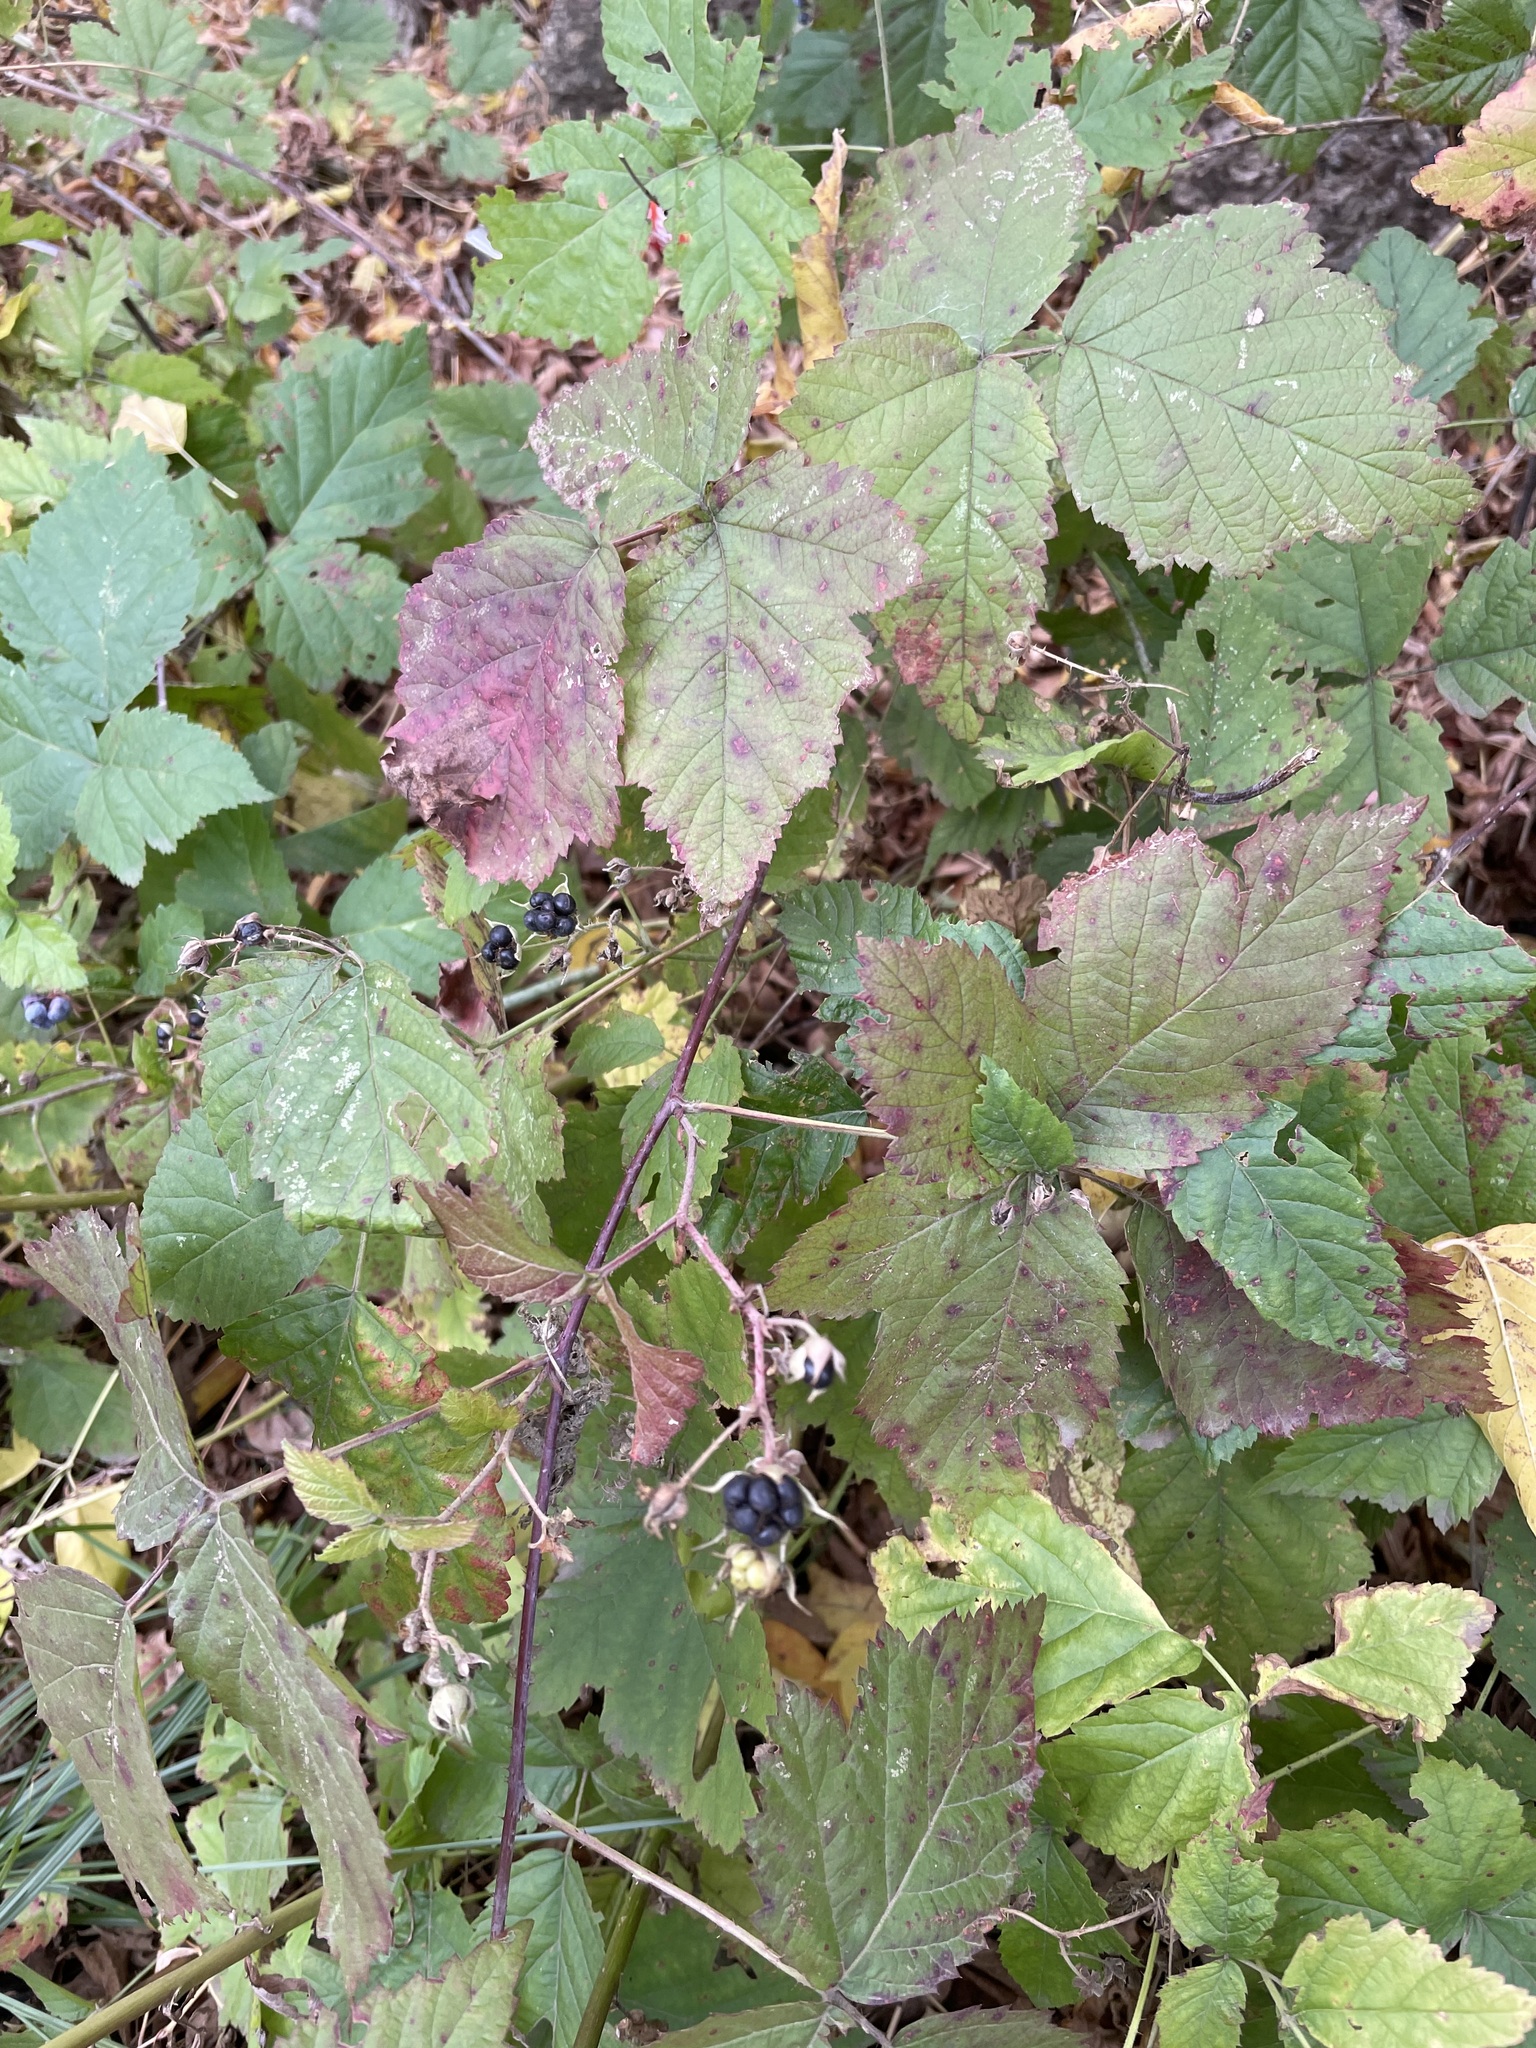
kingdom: Plantae
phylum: Tracheophyta
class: Magnoliopsida
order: Rosales
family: Rosaceae
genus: Rubus
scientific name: Rubus caesius
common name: Dewberry
